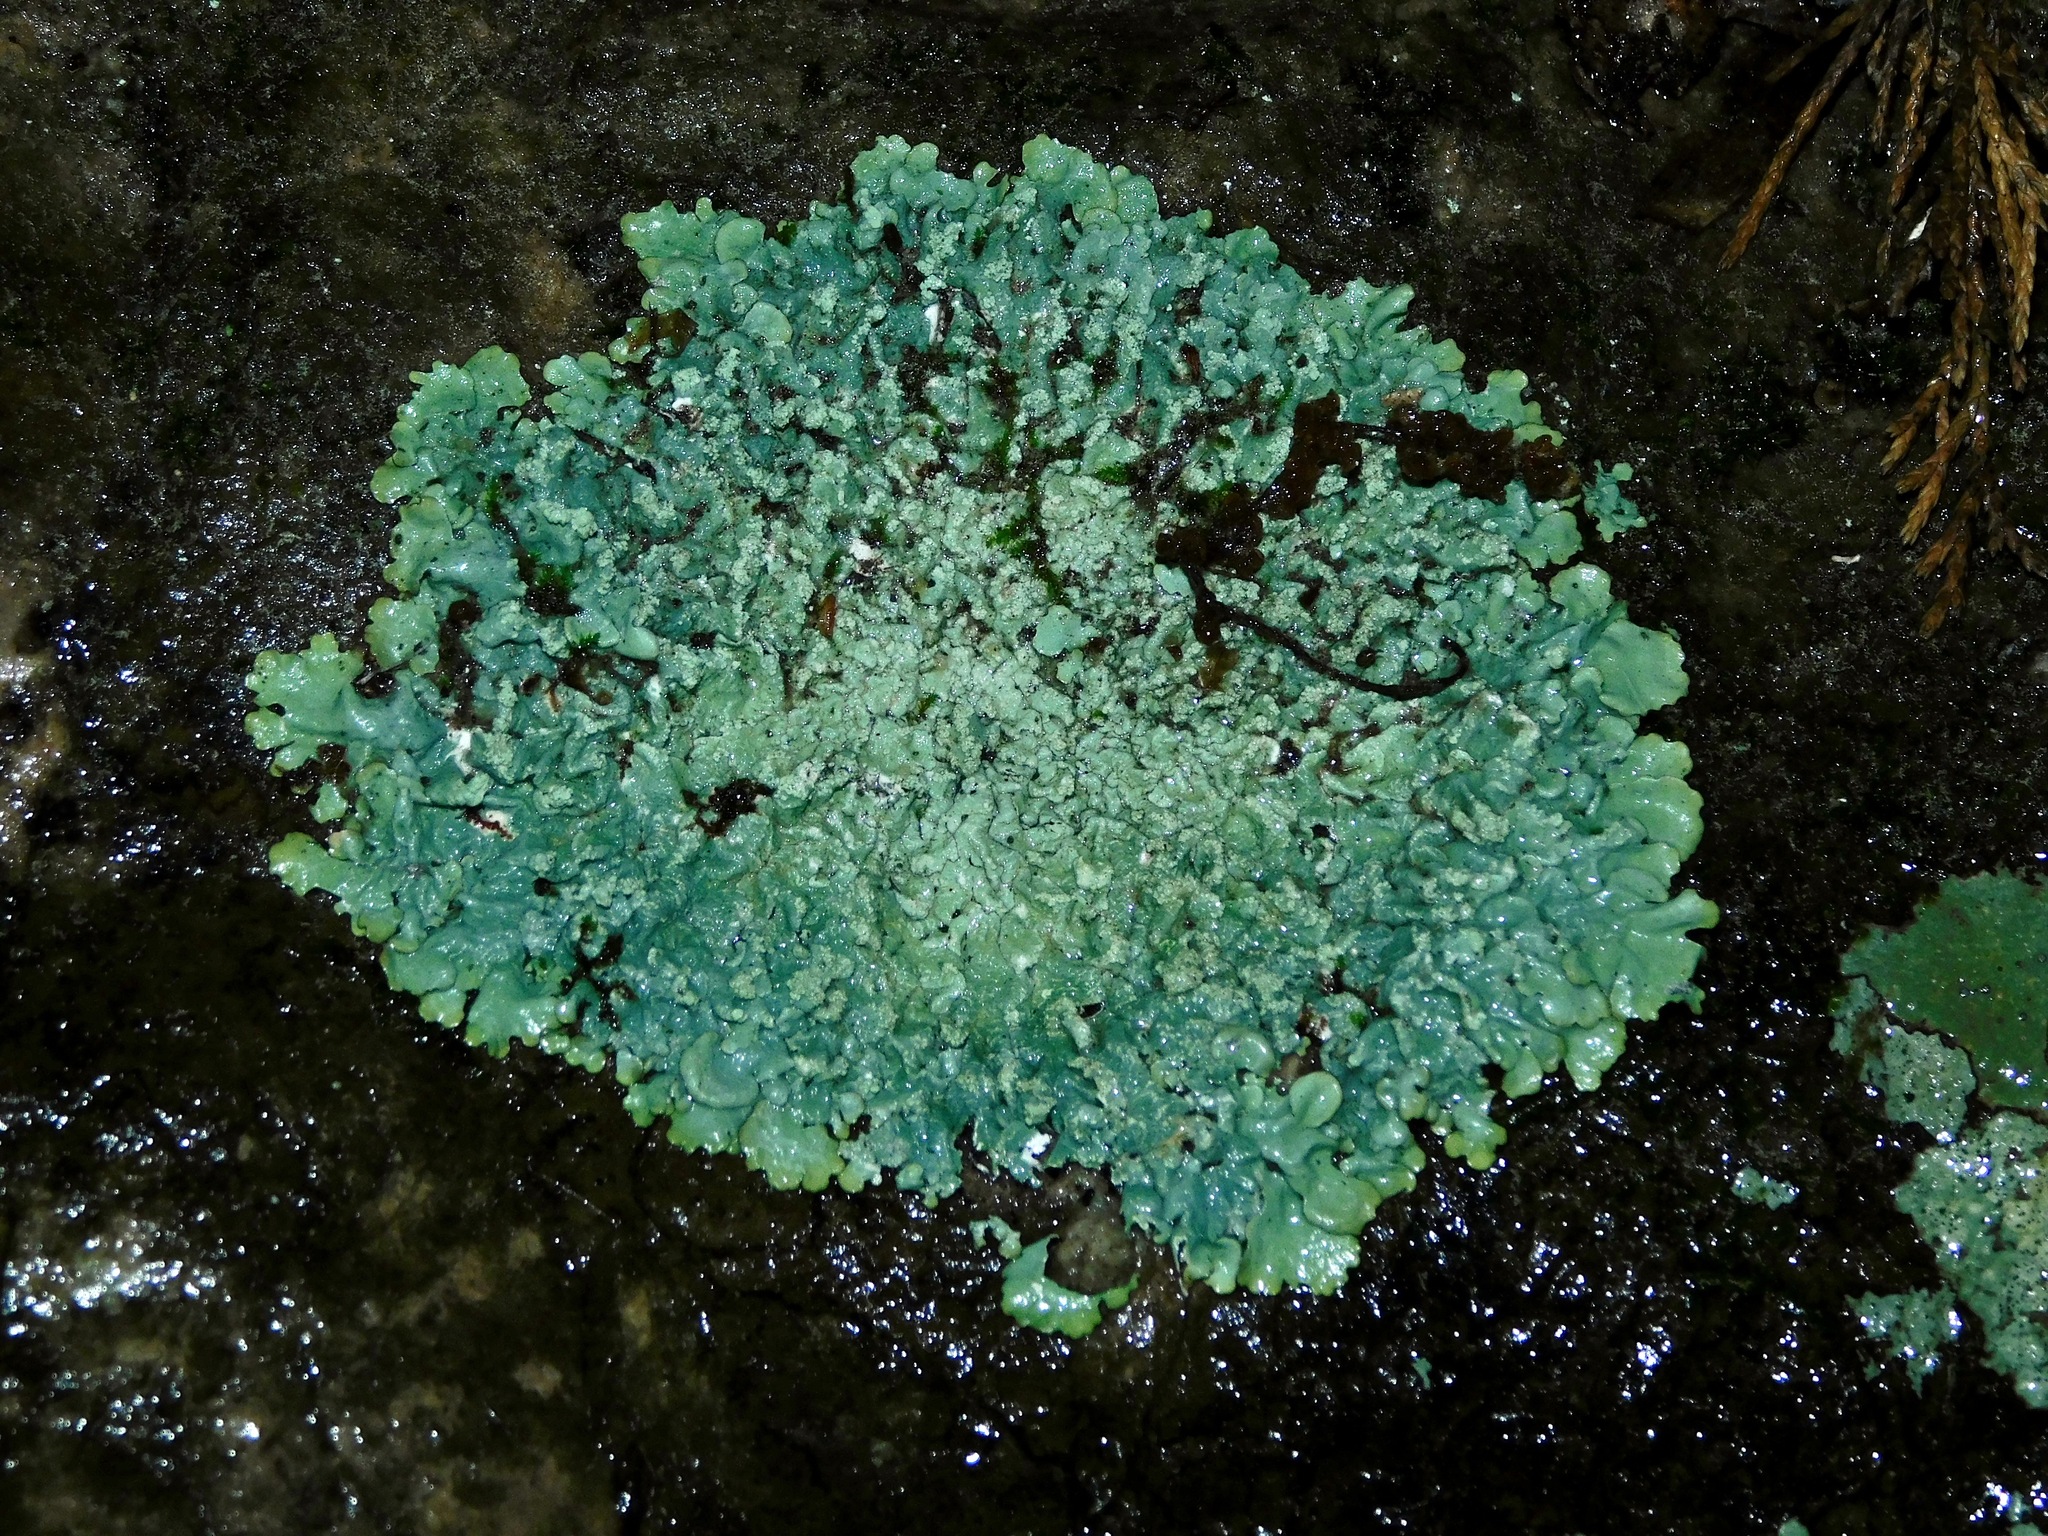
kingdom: Fungi
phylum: Ascomycota
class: Lecanoromycetes
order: Lecanorales
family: Parmeliaceae
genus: Myelochroa
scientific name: Myelochroa aurulenta
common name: Powdery axil-bristle lichen
